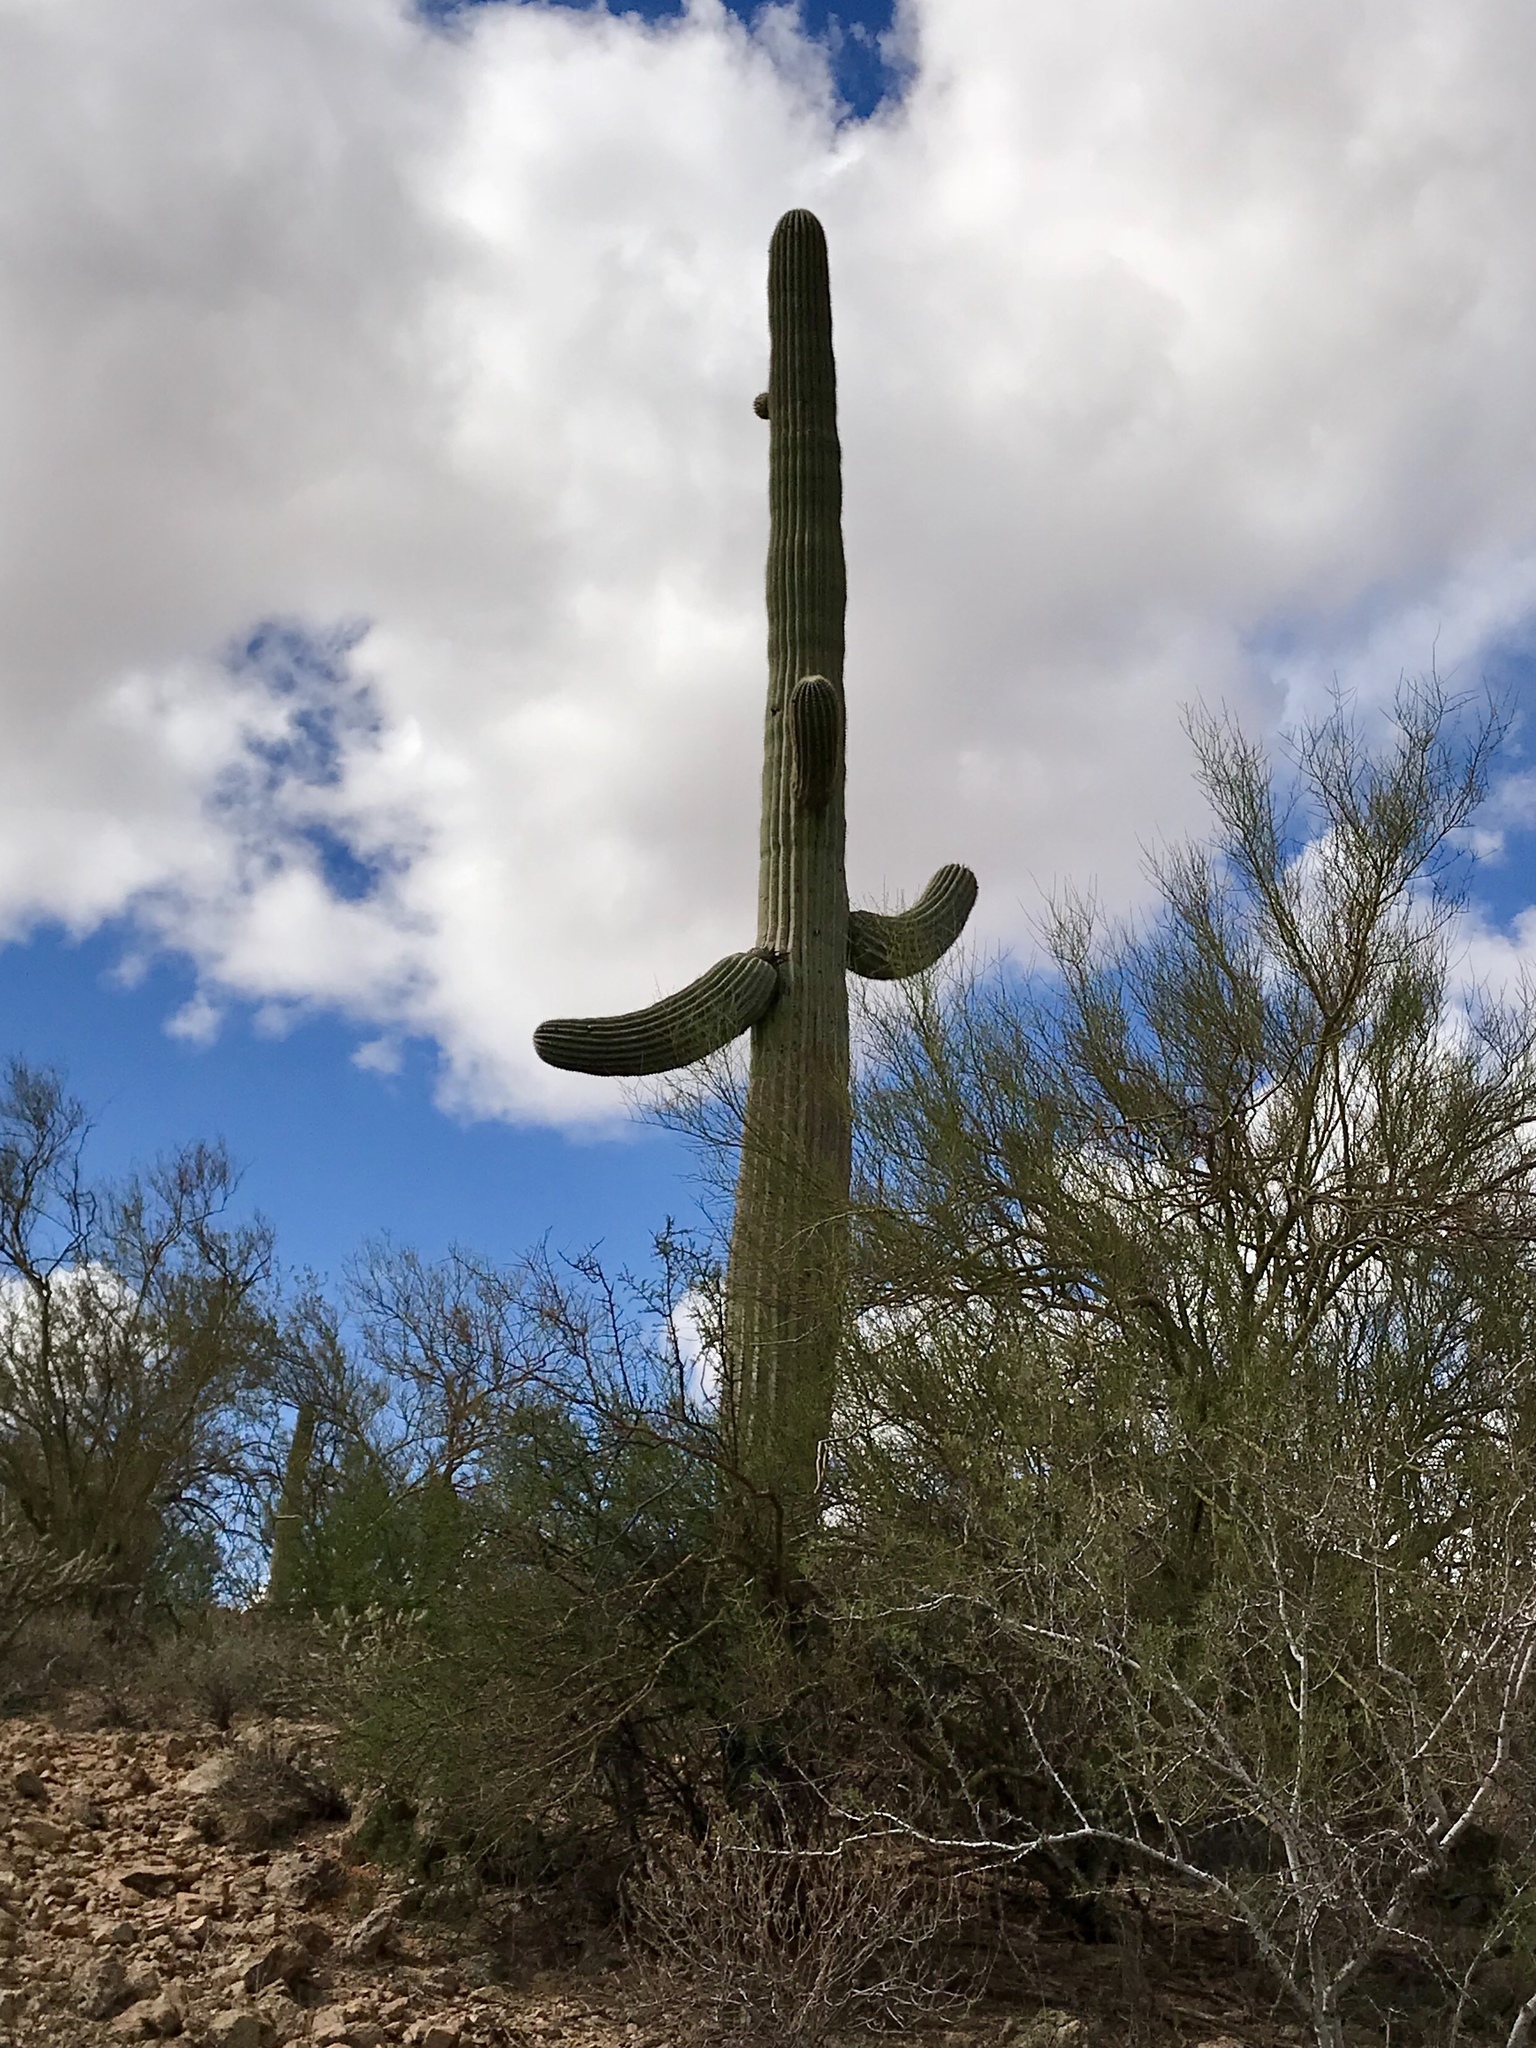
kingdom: Plantae
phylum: Tracheophyta
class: Magnoliopsida
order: Caryophyllales
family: Cactaceae
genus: Carnegiea
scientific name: Carnegiea gigantea
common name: Saguaro
